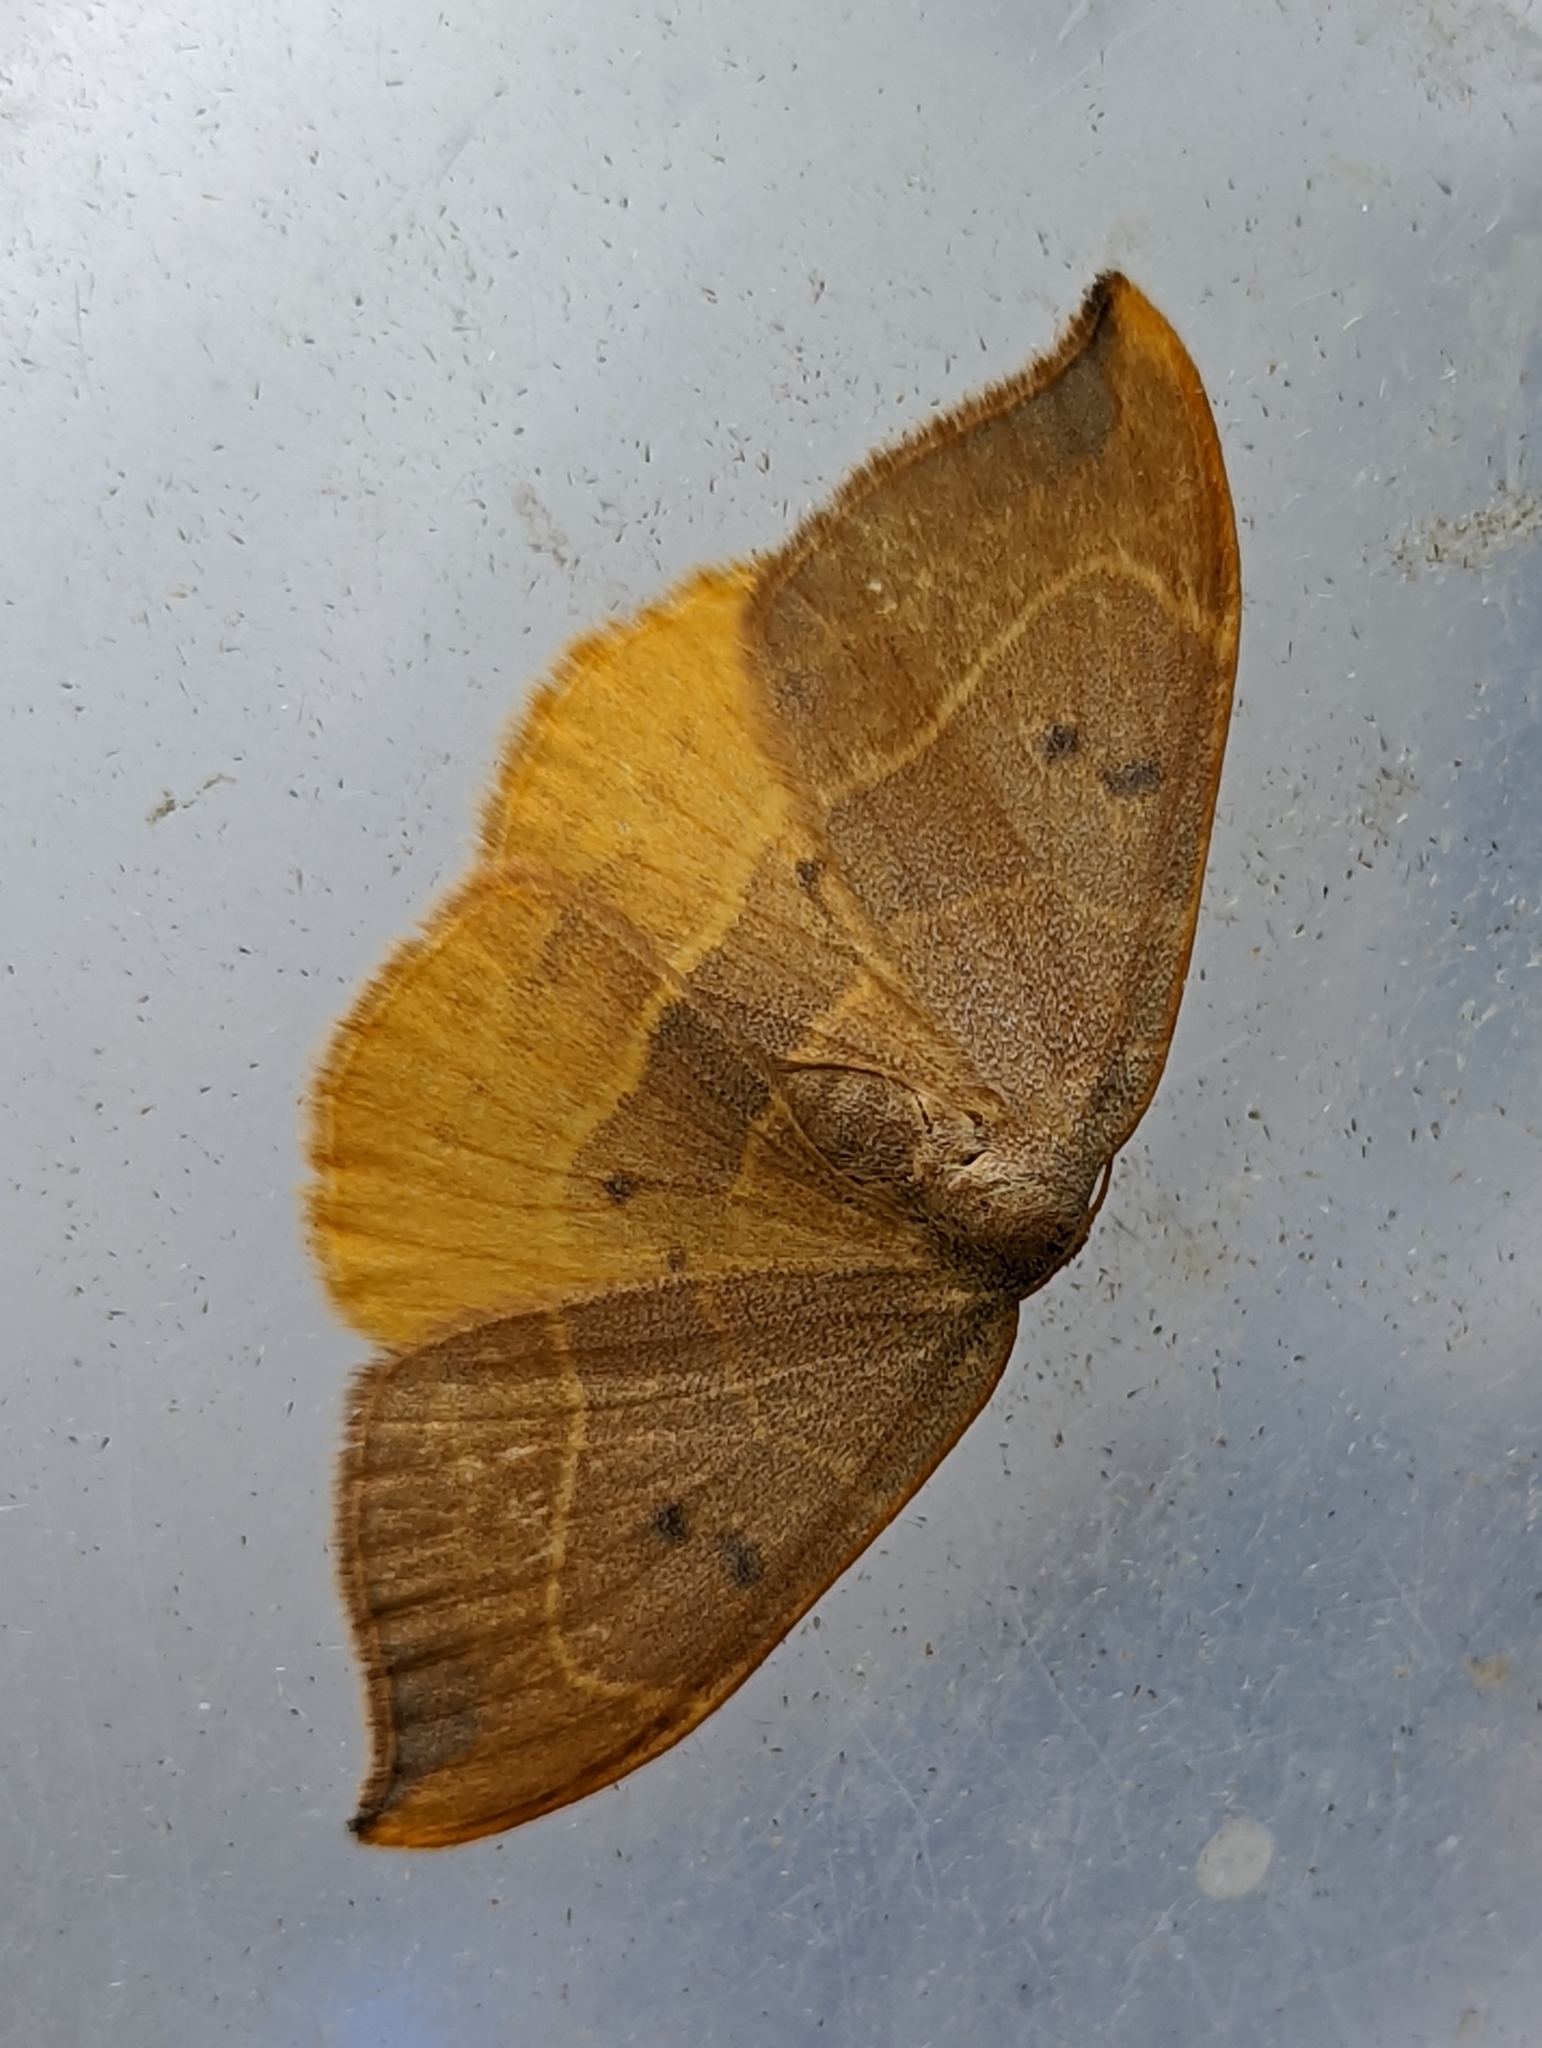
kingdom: Animalia
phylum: Arthropoda
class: Insecta
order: Lepidoptera
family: Drepanidae
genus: Watsonalla
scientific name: Watsonalla binaria
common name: Oak hook-tip
